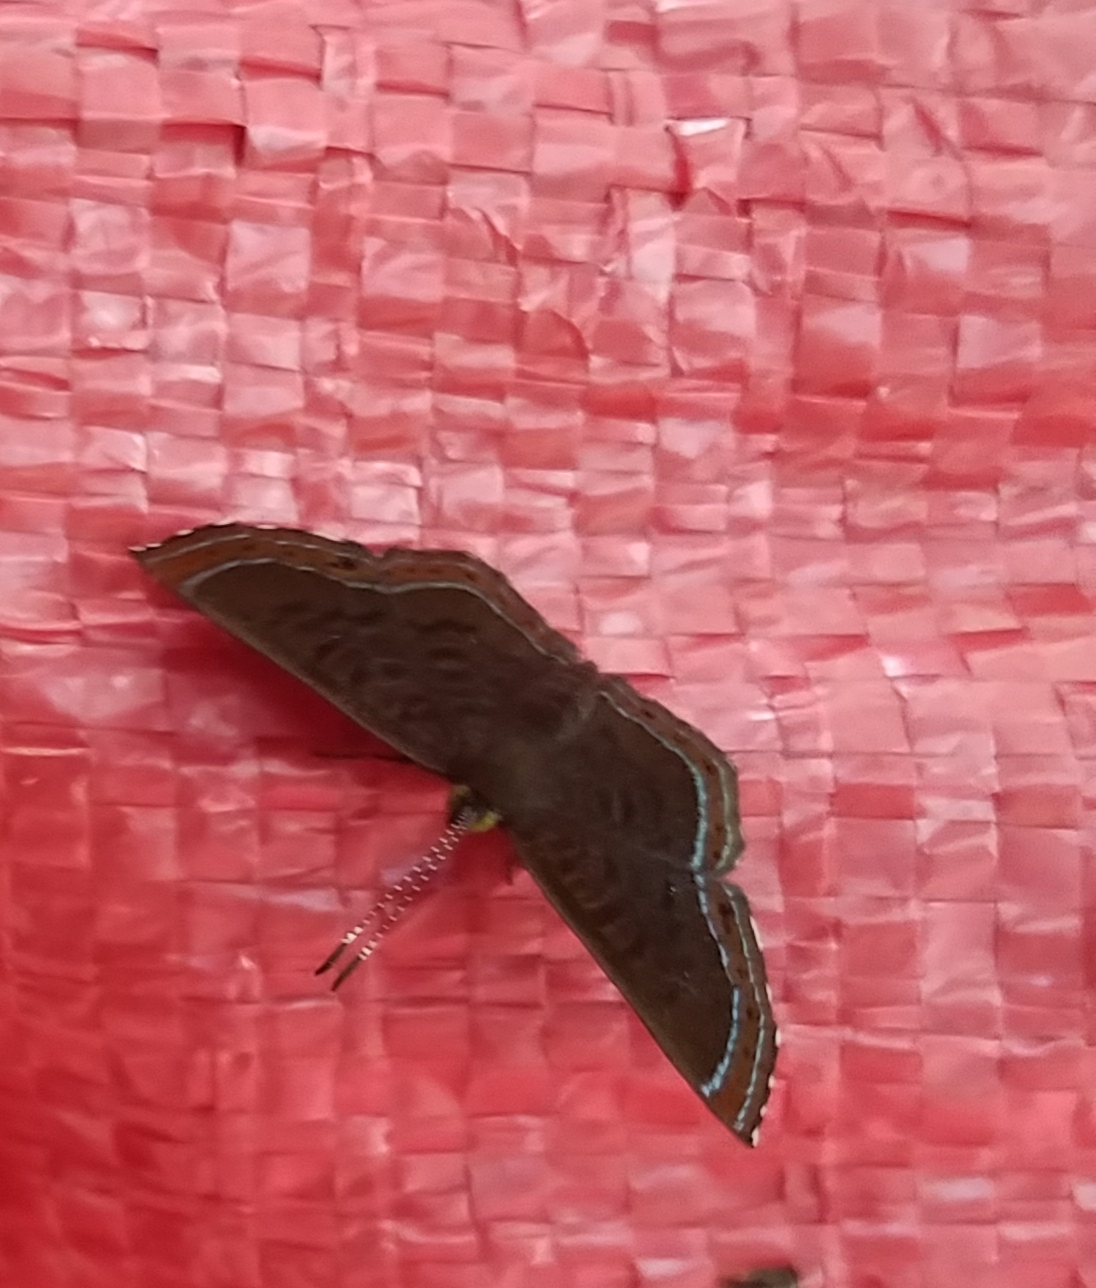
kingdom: Animalia
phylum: Arthropoda
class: Insecta
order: Lepidoptera
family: Riodinidae
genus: Detritivora
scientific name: Detritivora
